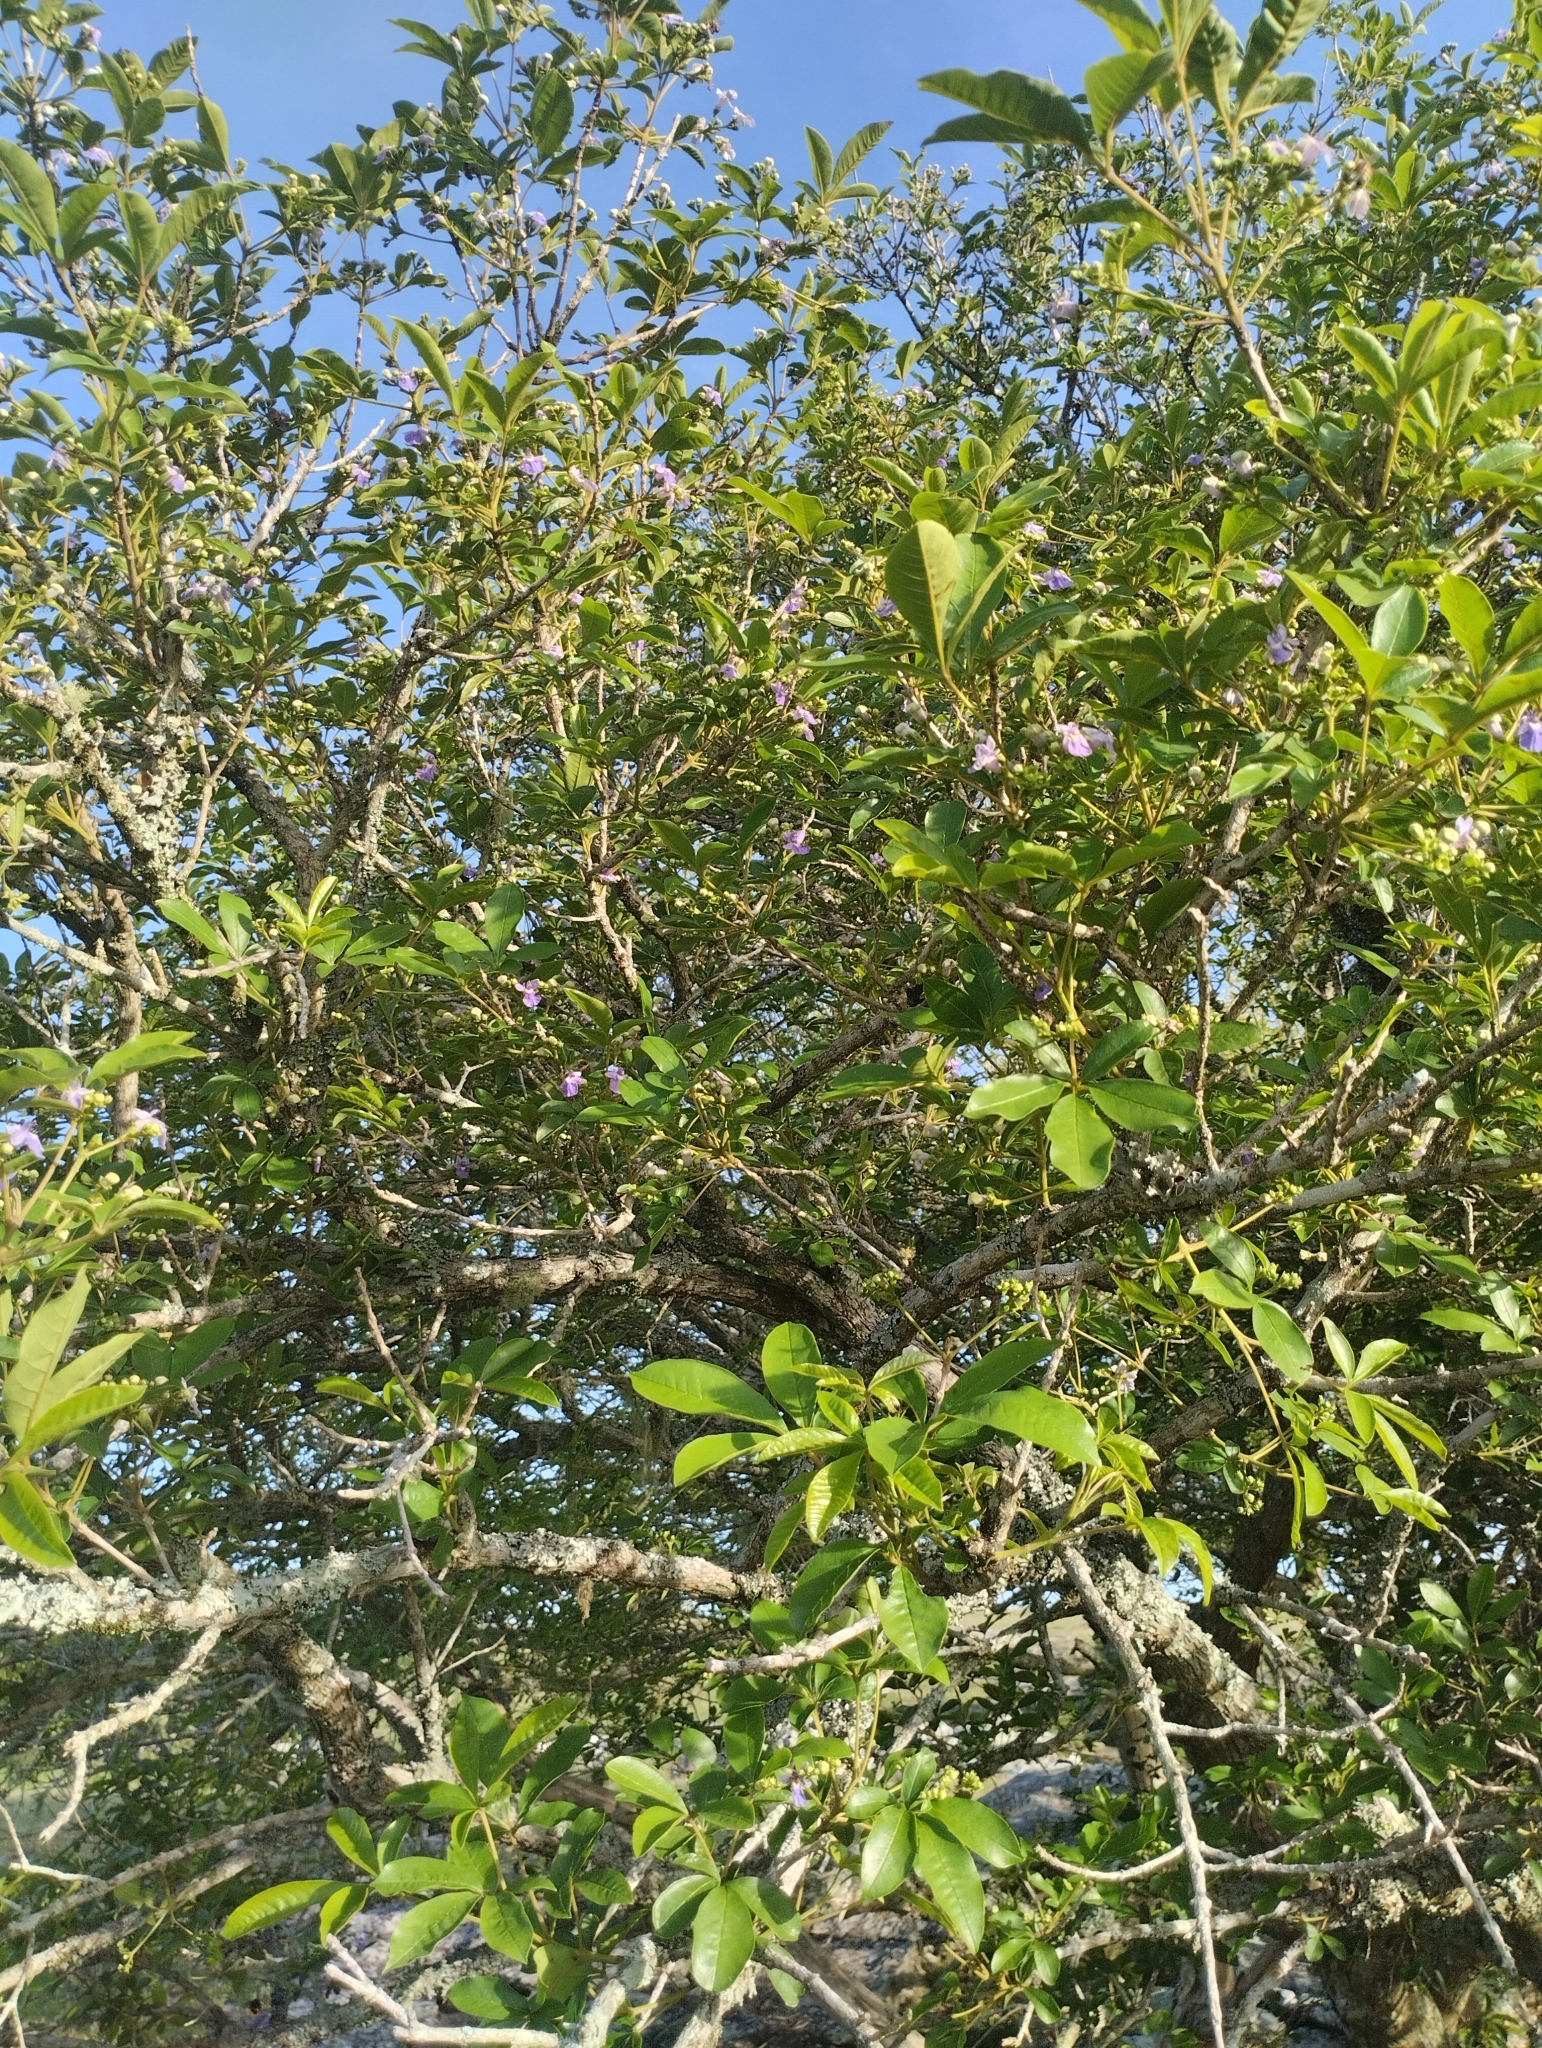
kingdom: Plantae
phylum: Tracheophyta
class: Magnoliopsida
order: Lamiales
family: Lamiaceae
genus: Vitex
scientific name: Vitex megapotamica
